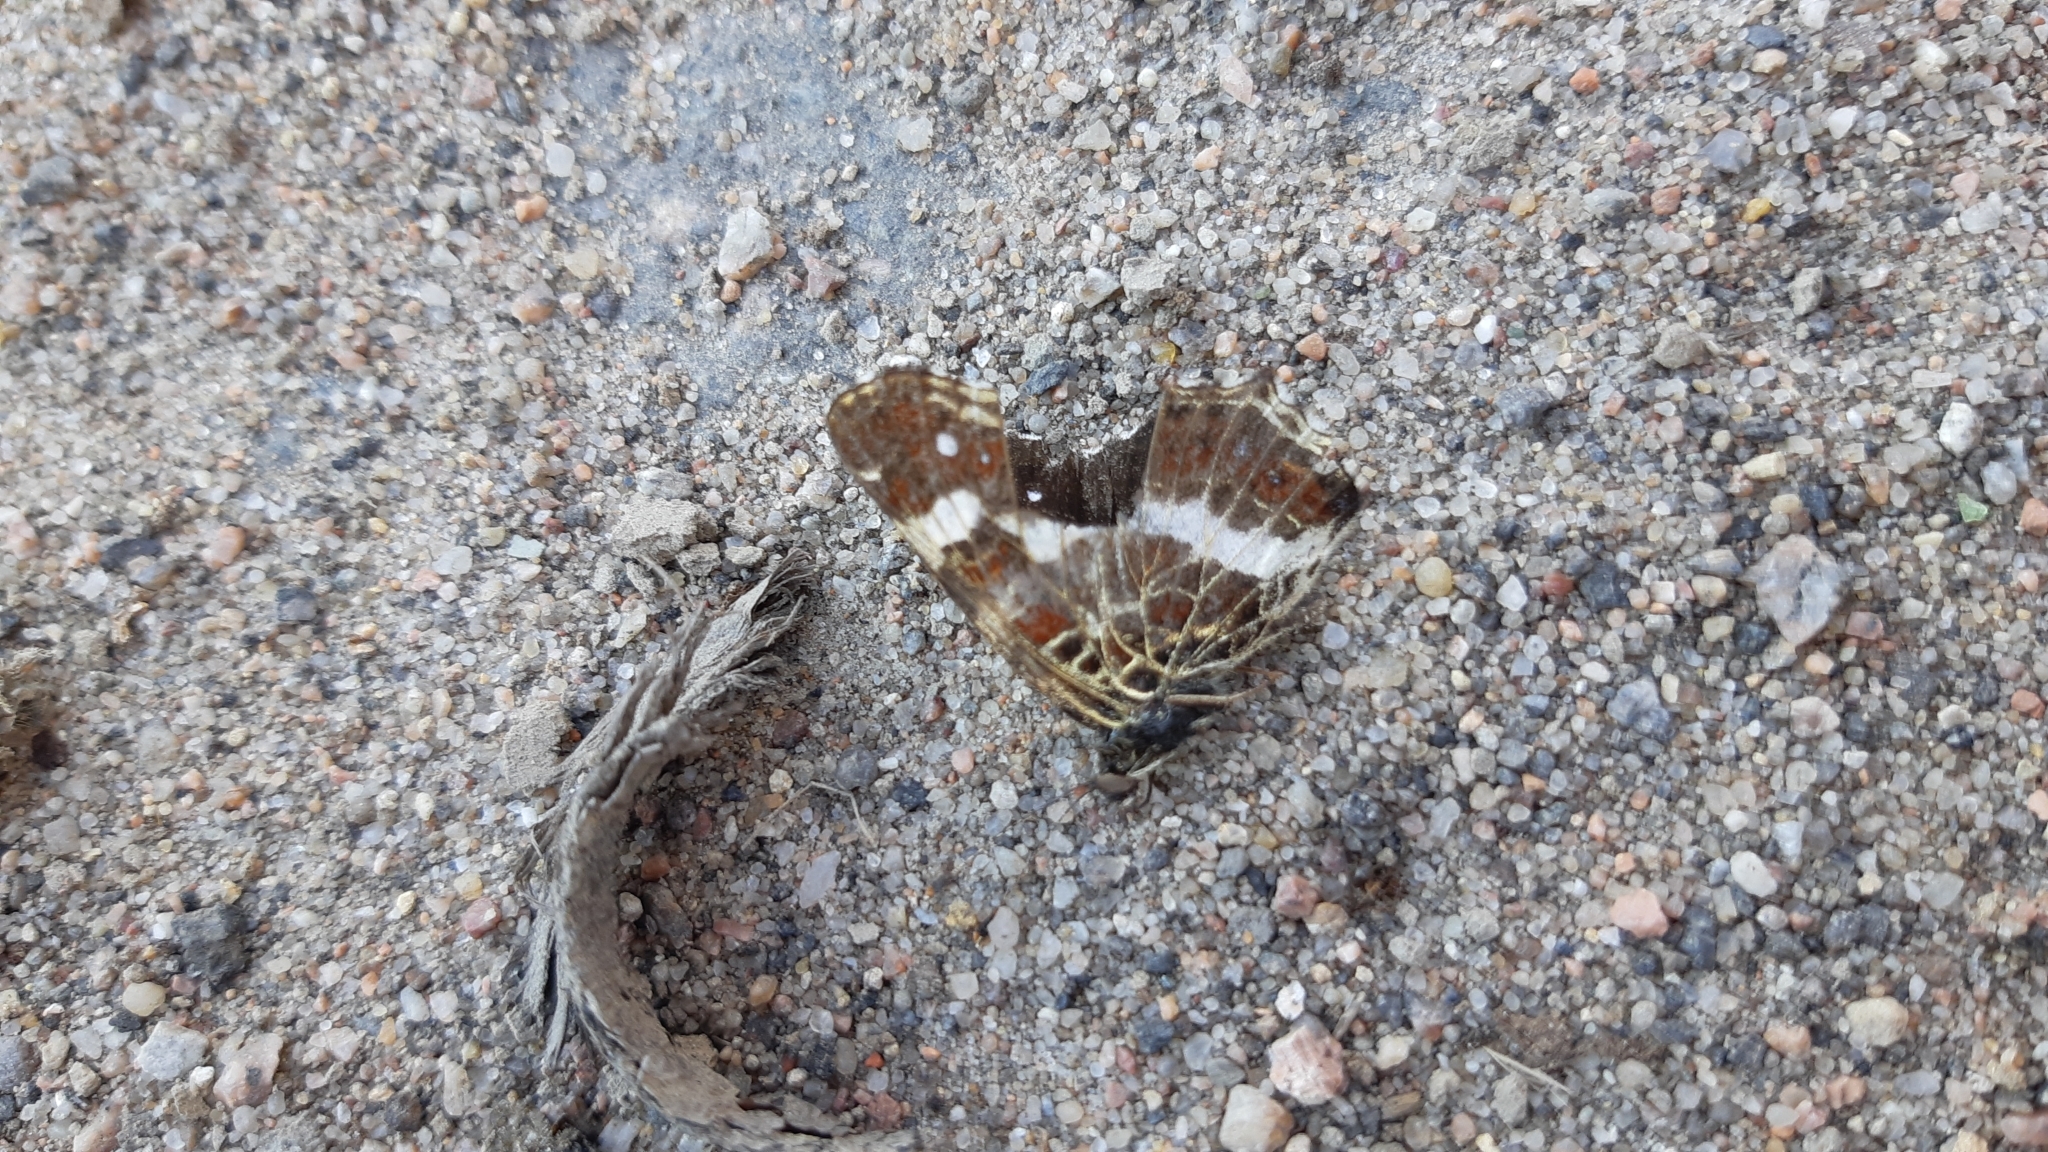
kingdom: Animalia
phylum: Arthropoda
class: Insecta
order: Lepidoptera
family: Nymphalidae
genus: Araschnia
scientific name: Araschnia levana
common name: Map butterfly
